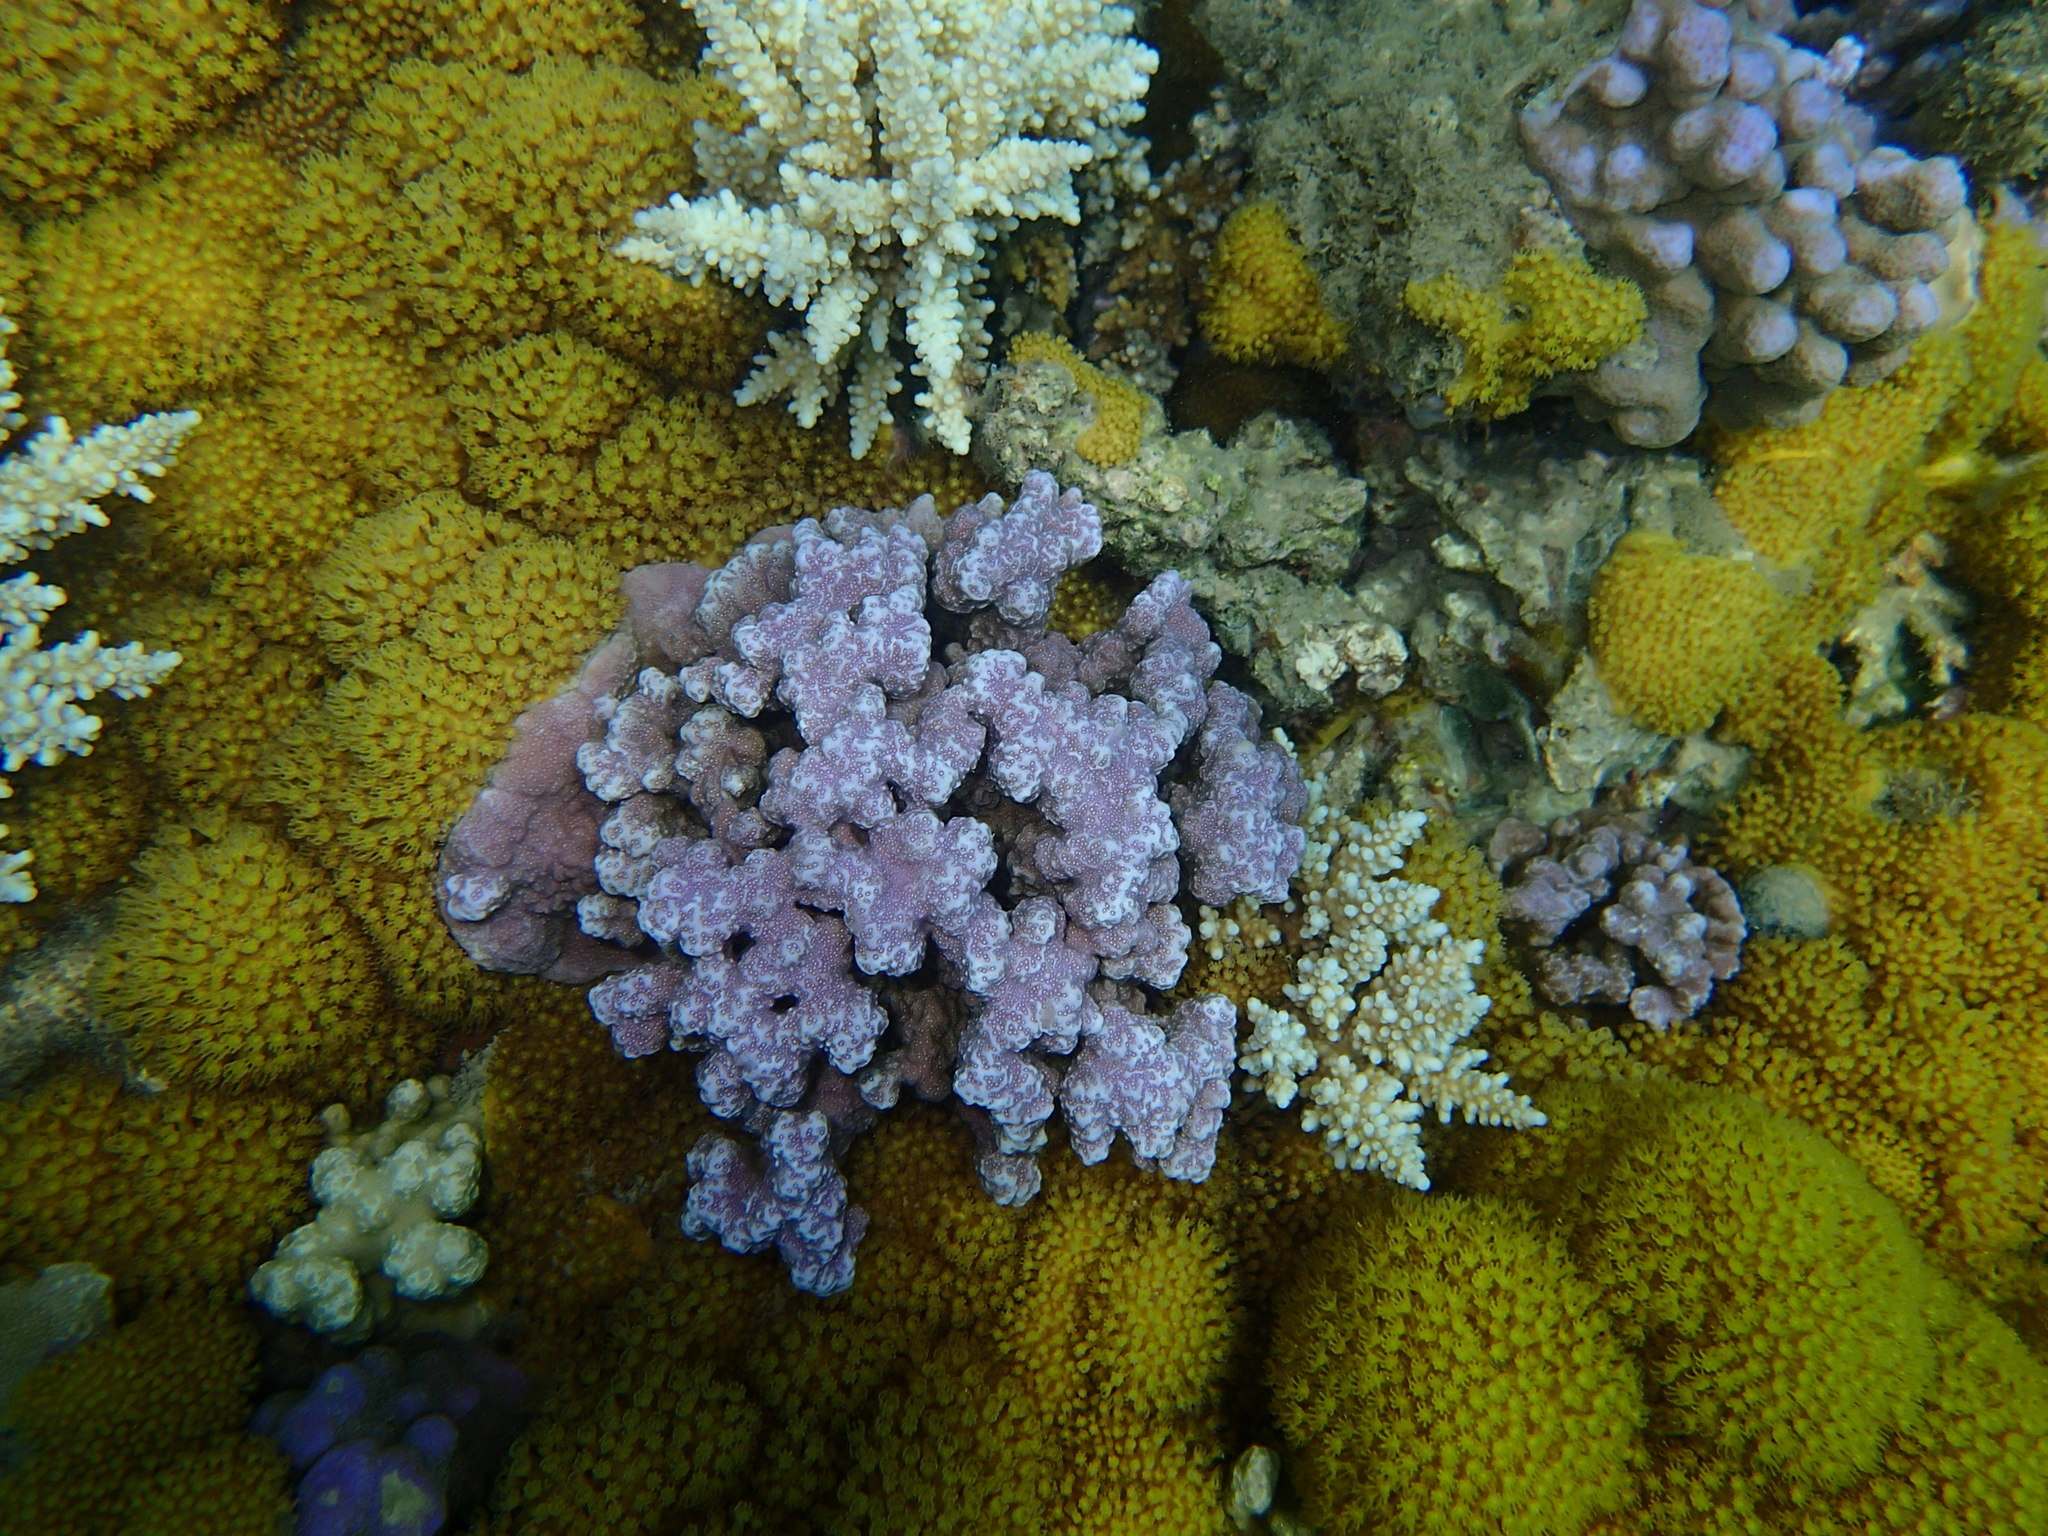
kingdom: Animalia
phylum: Cnidaria
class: Anthozoa
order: Scleractinia
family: Poritidae
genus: Porites
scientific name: Porites rus
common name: Hump coral
